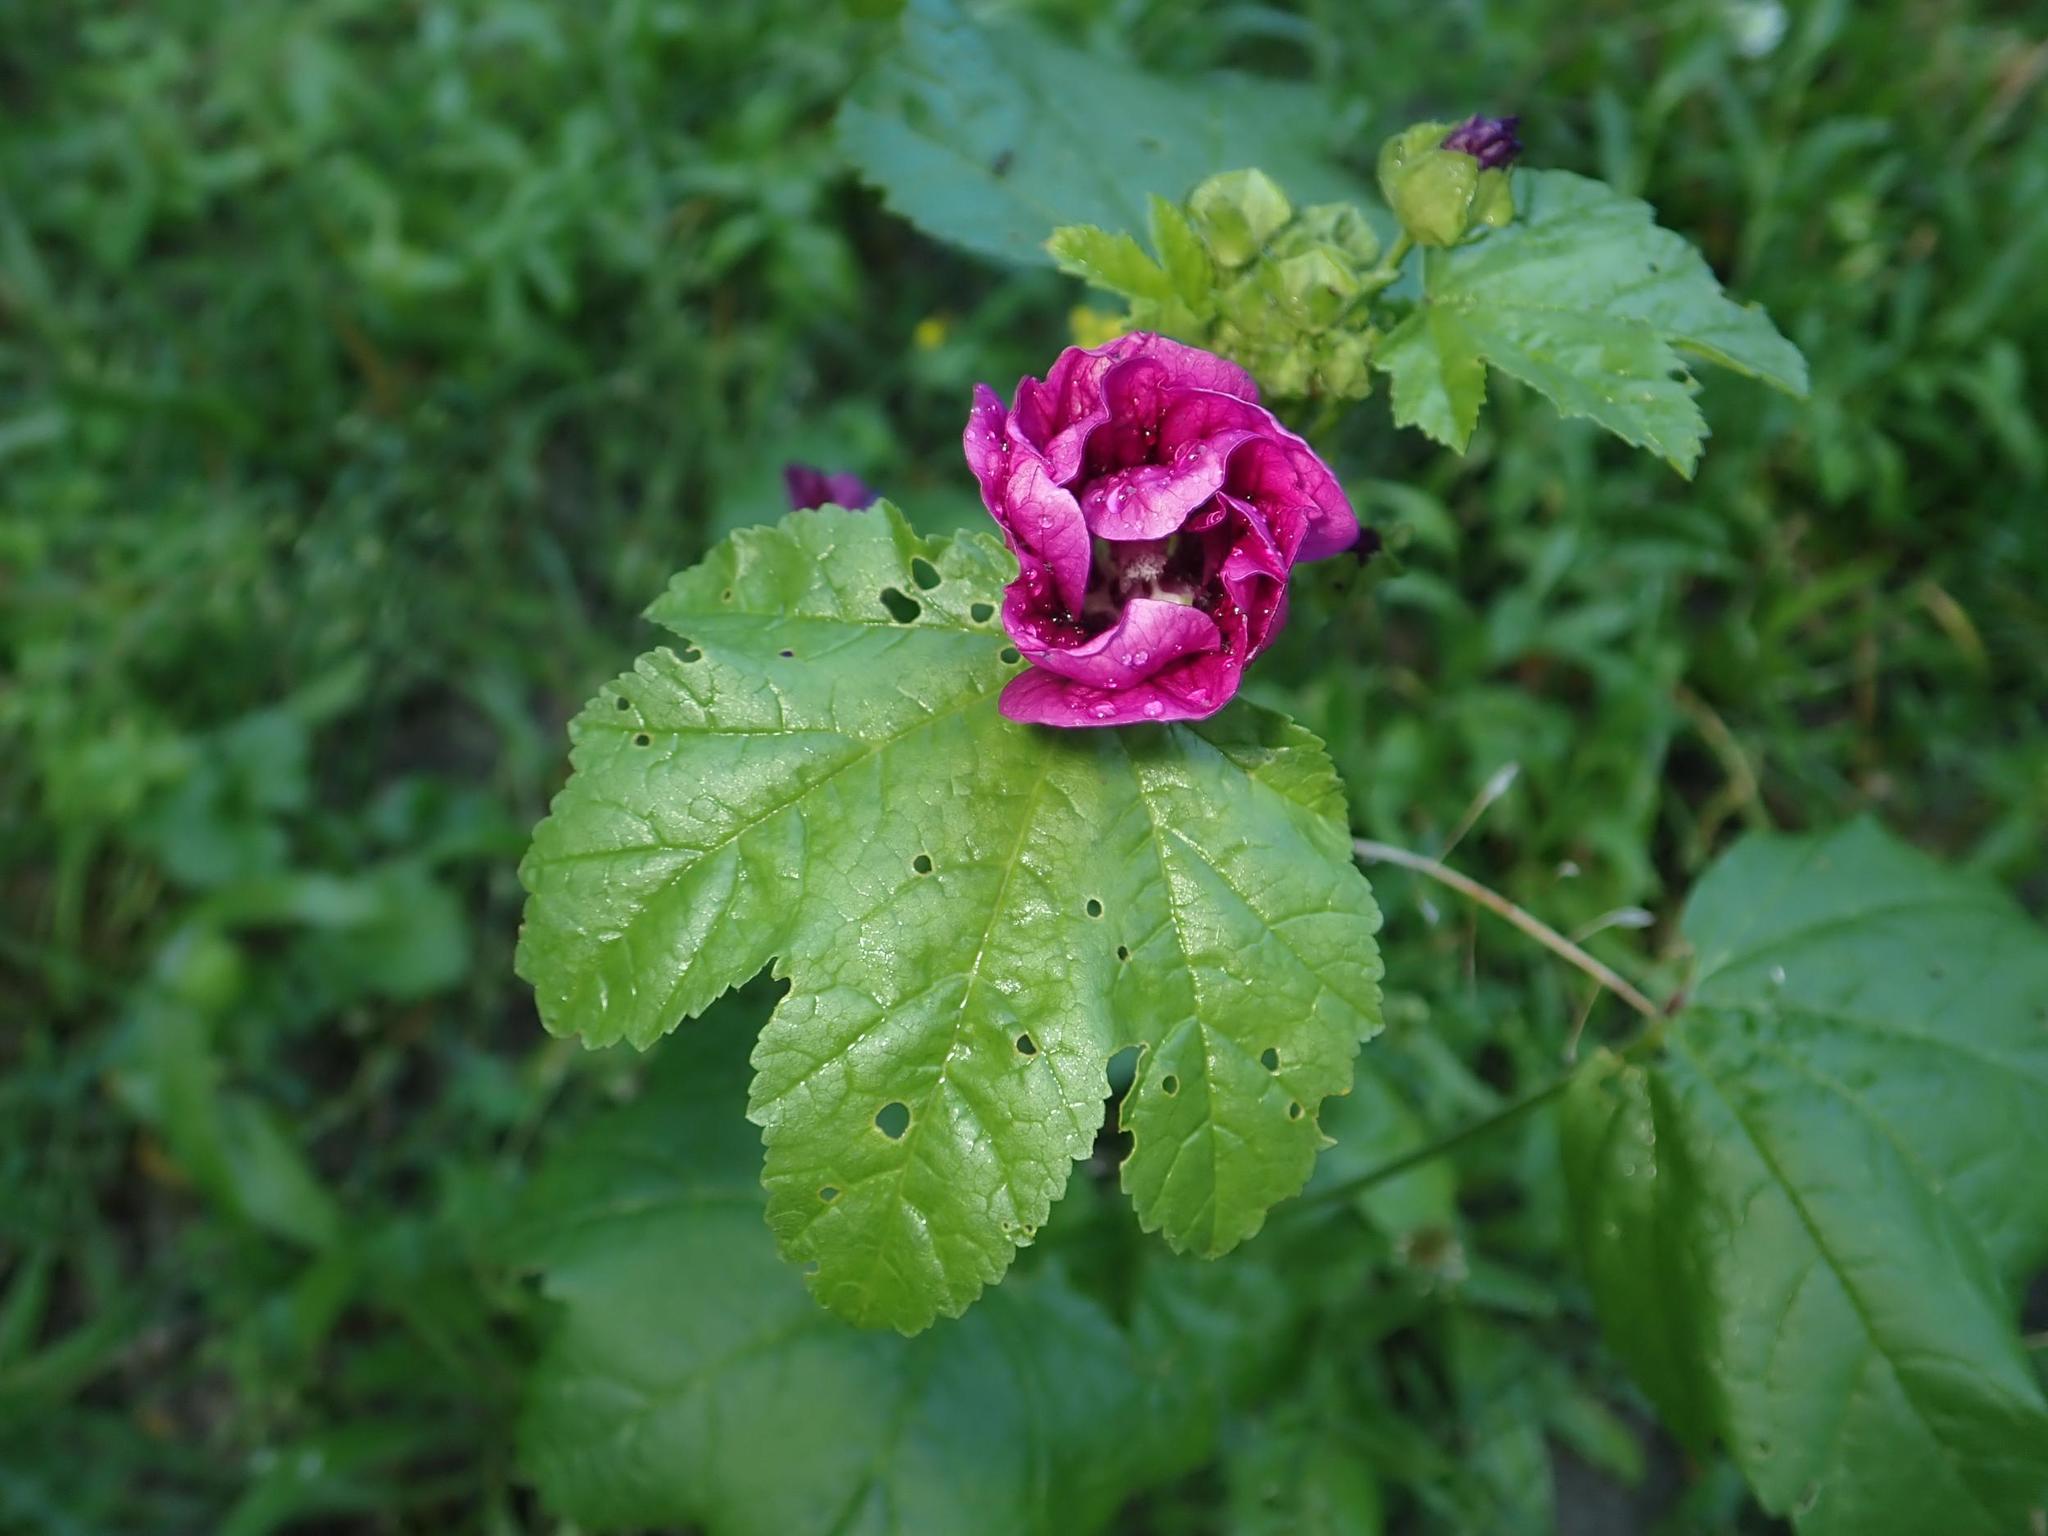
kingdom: Plantae
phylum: Tracheophyta
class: Magnoliopsida
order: Malvales
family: Malvaceae
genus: Malva
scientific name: Malva sylvestris
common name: Common mallow
